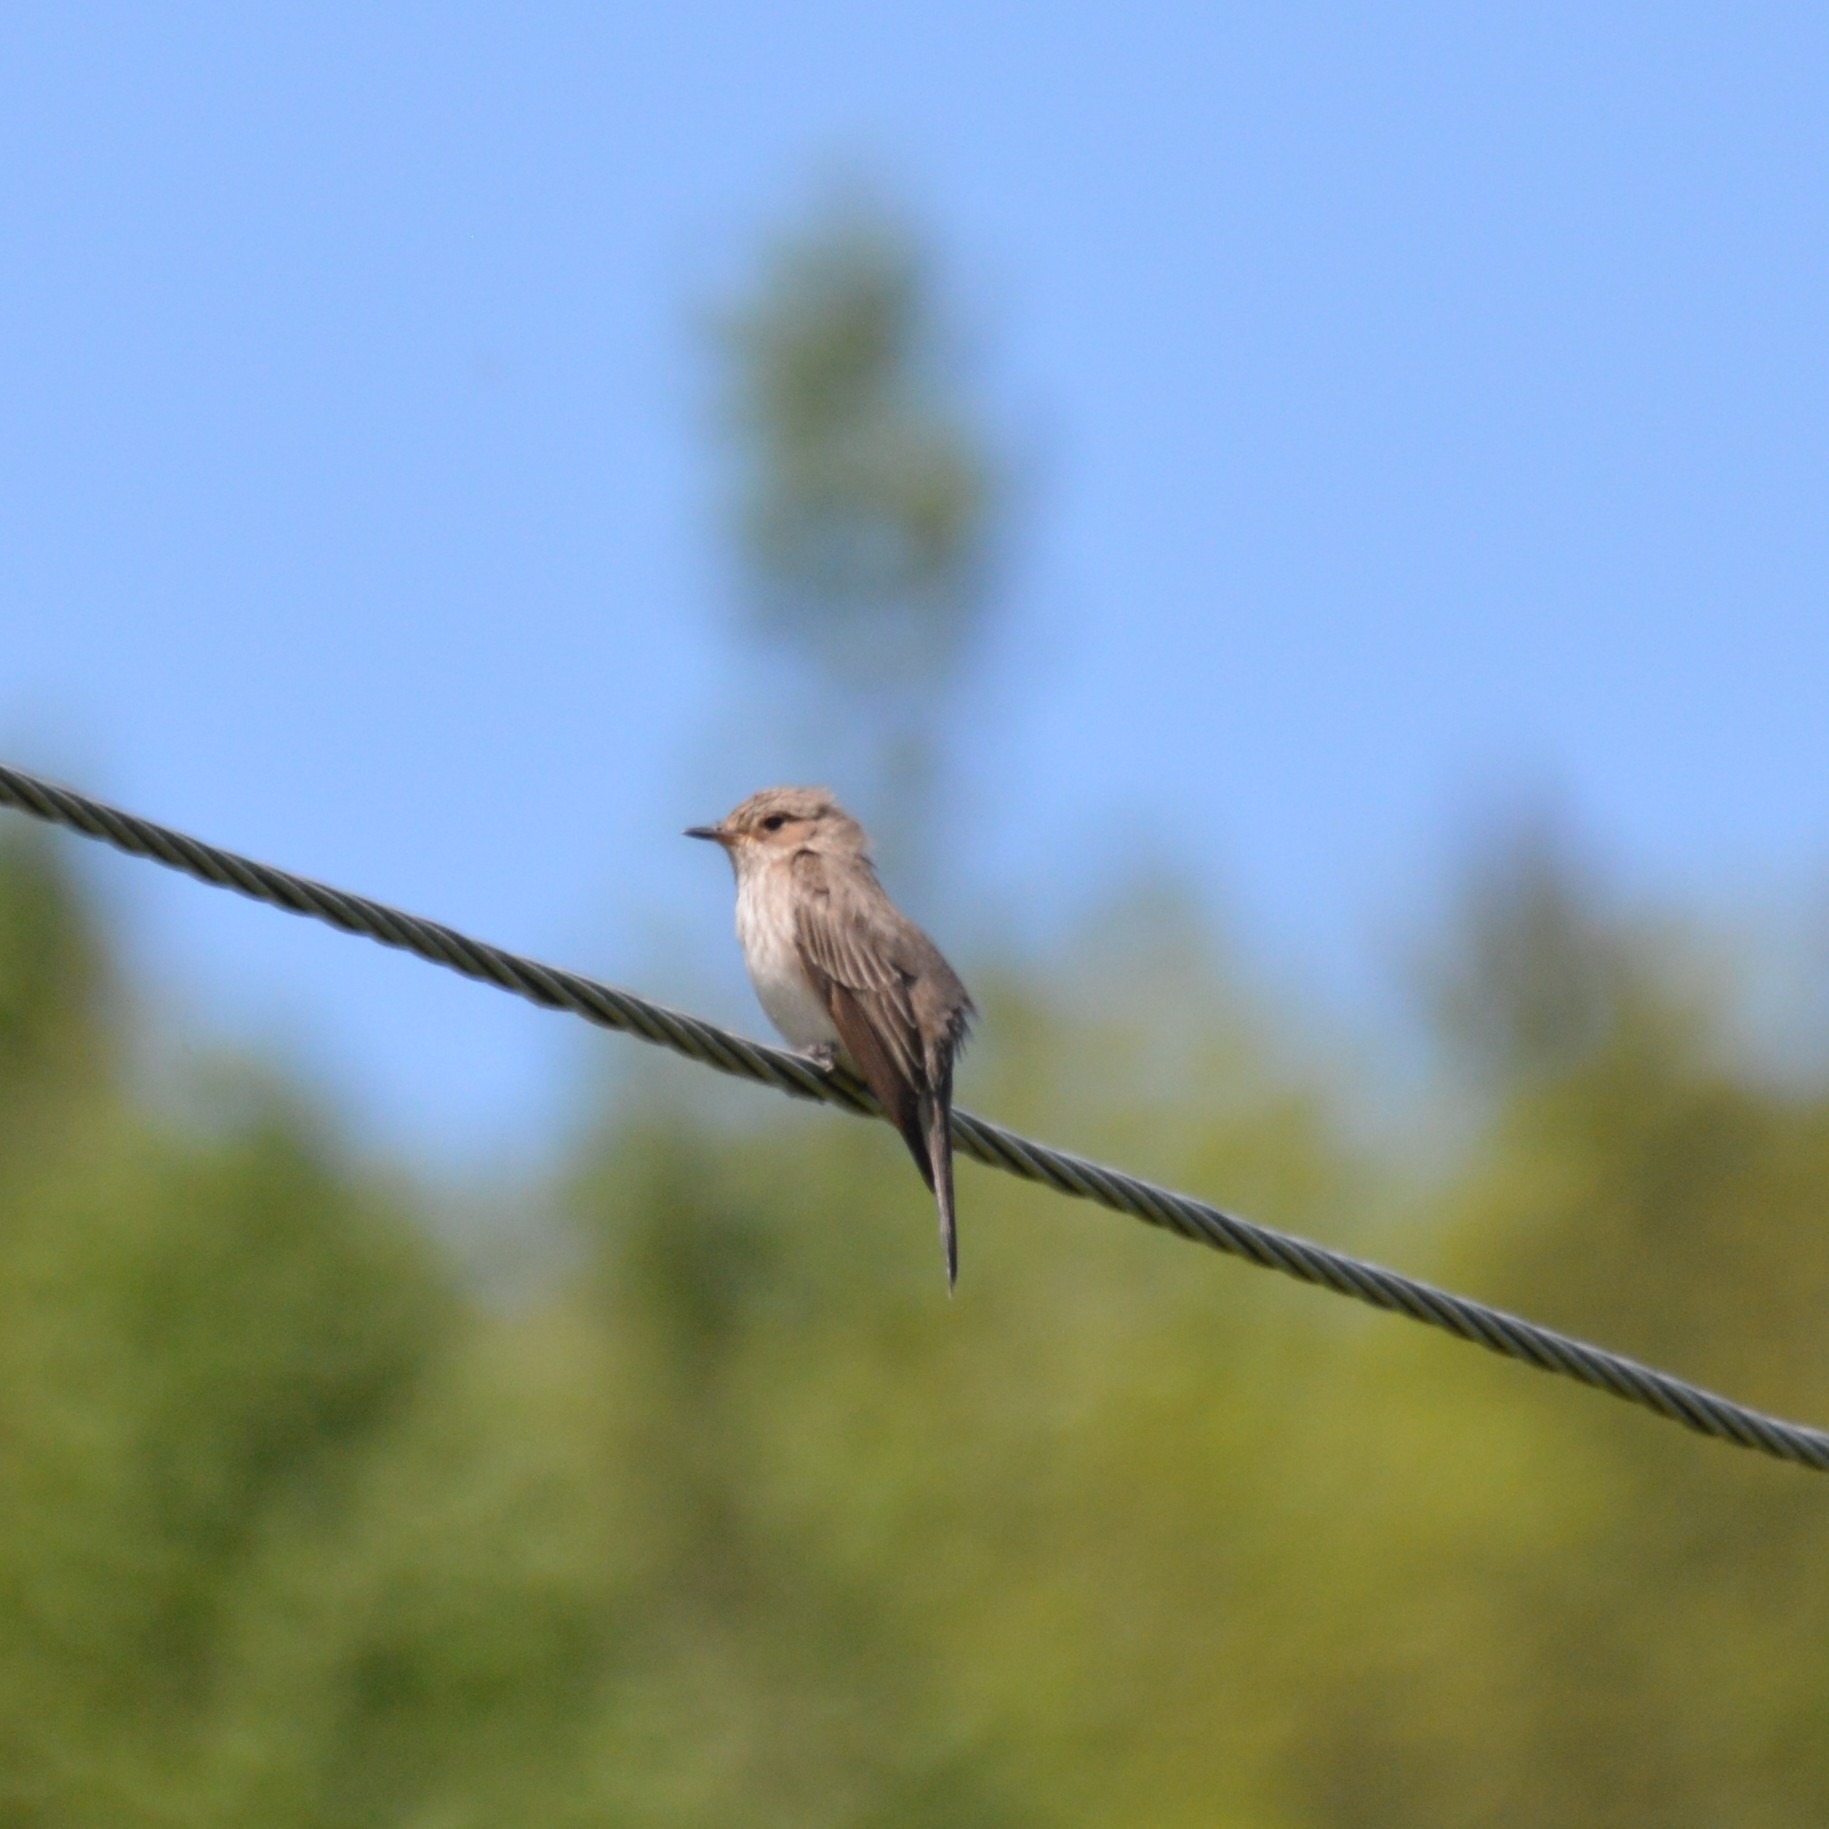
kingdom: Animalia
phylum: Chordata
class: Aves
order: Passeriformes
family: Muscicapidae
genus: Muscicapa
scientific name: Muscicapa striata
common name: Spotted flycatcher
